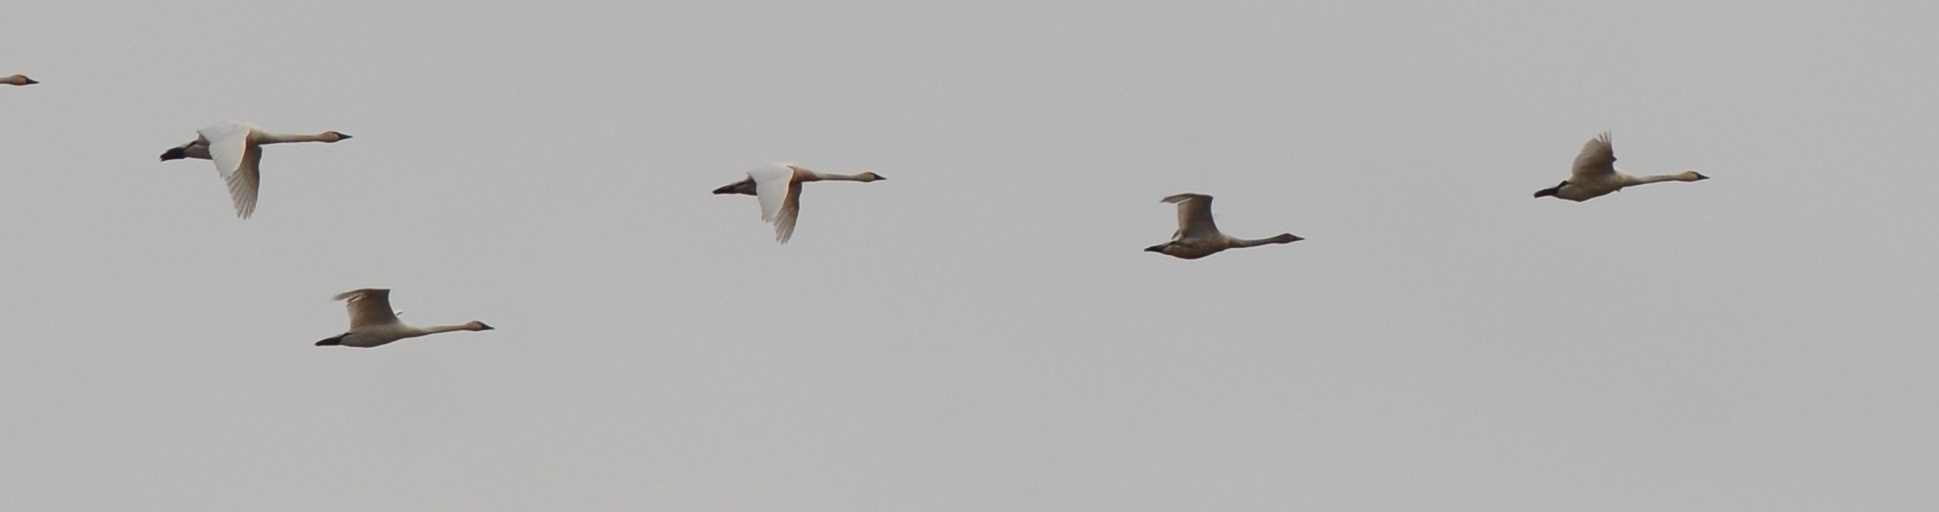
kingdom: Animalia
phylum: Chordata
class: Aves
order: Anseriformes
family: Anatidae
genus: Cygnus
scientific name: Cygnus columbianus
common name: Tundra swan
